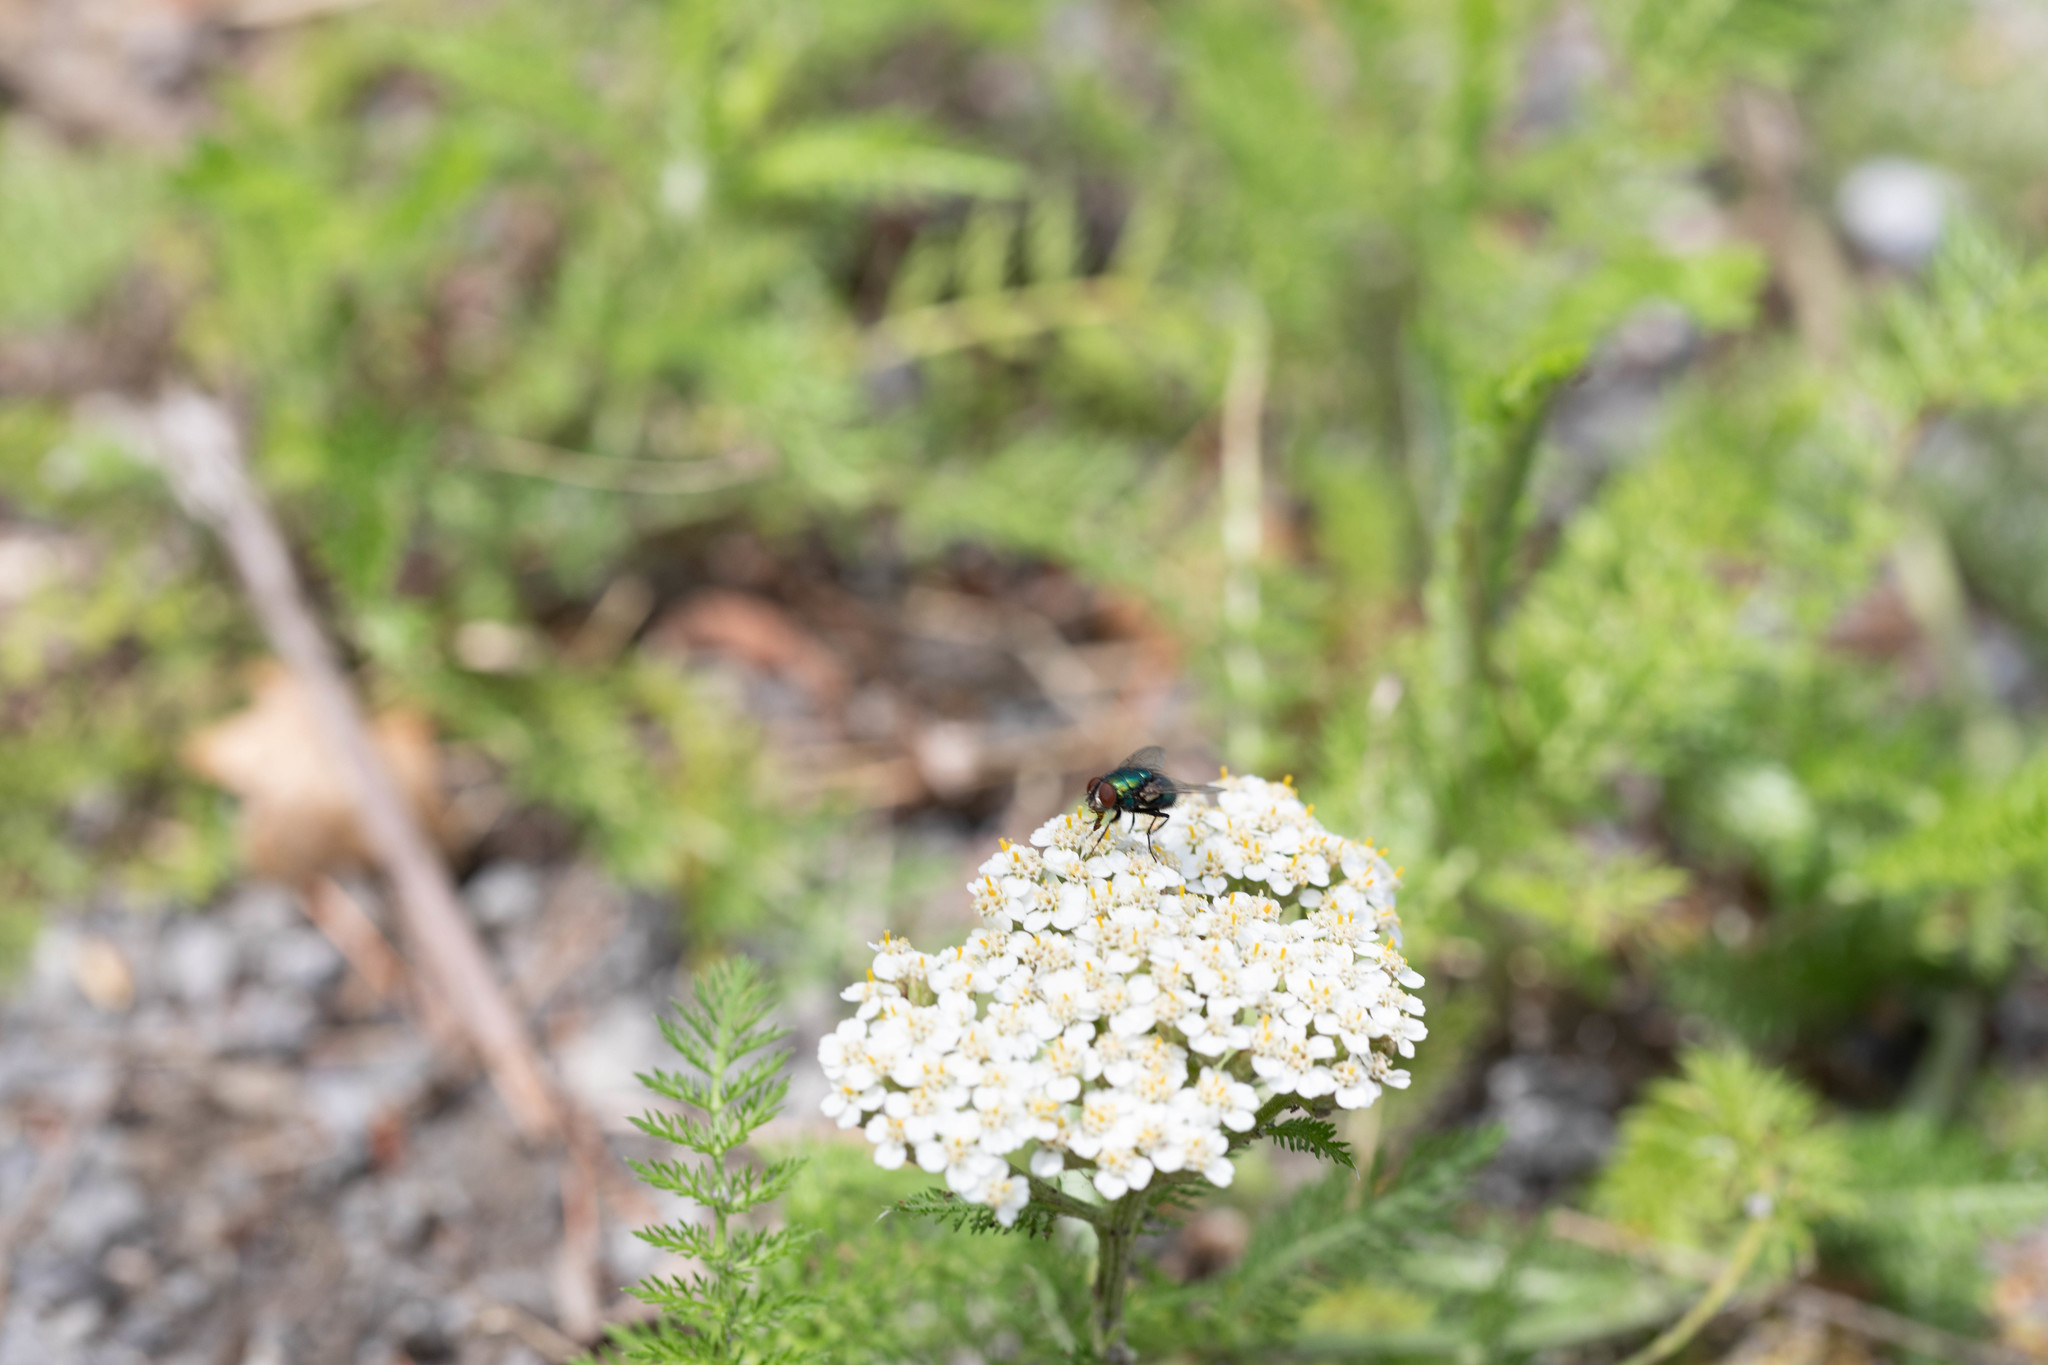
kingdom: Plantae
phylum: Tracheophyta
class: Magnoliopsida
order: Asterales
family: Asteraceae
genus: Achillea
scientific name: Achillea millefolium
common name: Yarrow
